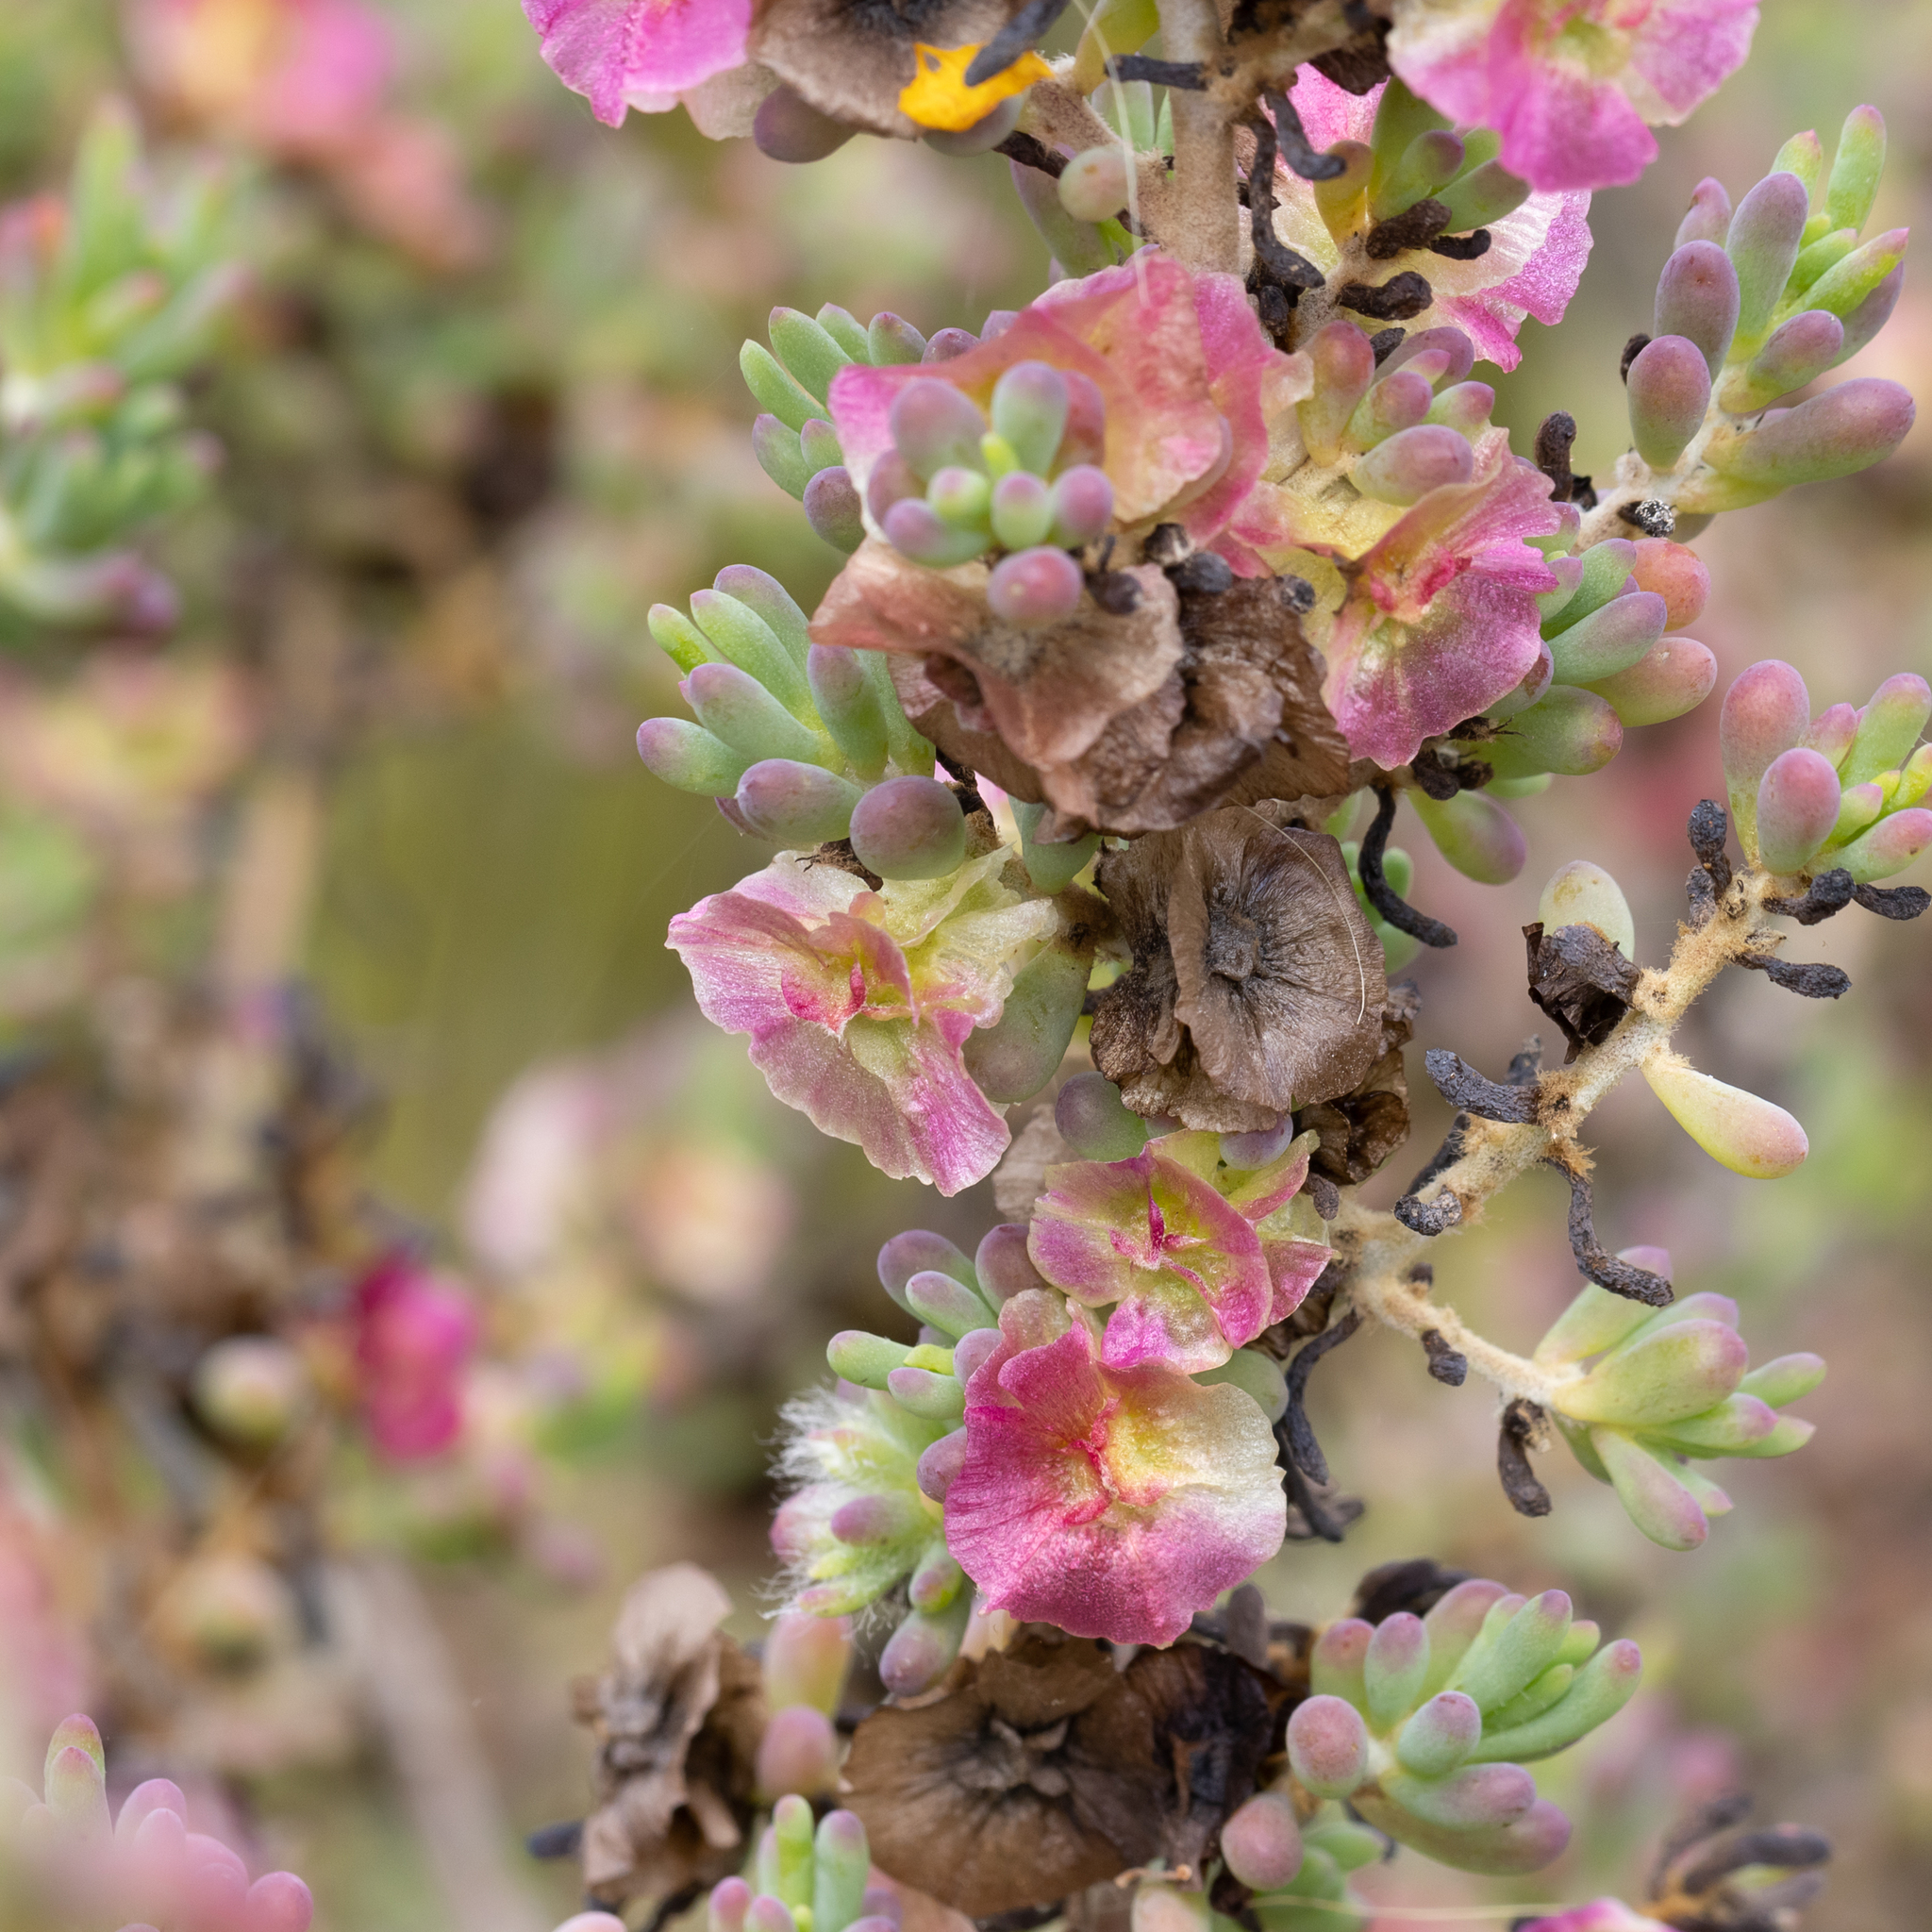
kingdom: Plantae
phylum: Tracheophyta
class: Magnoliopsida
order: Caryophyllales
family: Amaranthaceae
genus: Maireana
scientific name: Maireana erioclada
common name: Rosy bluebush
